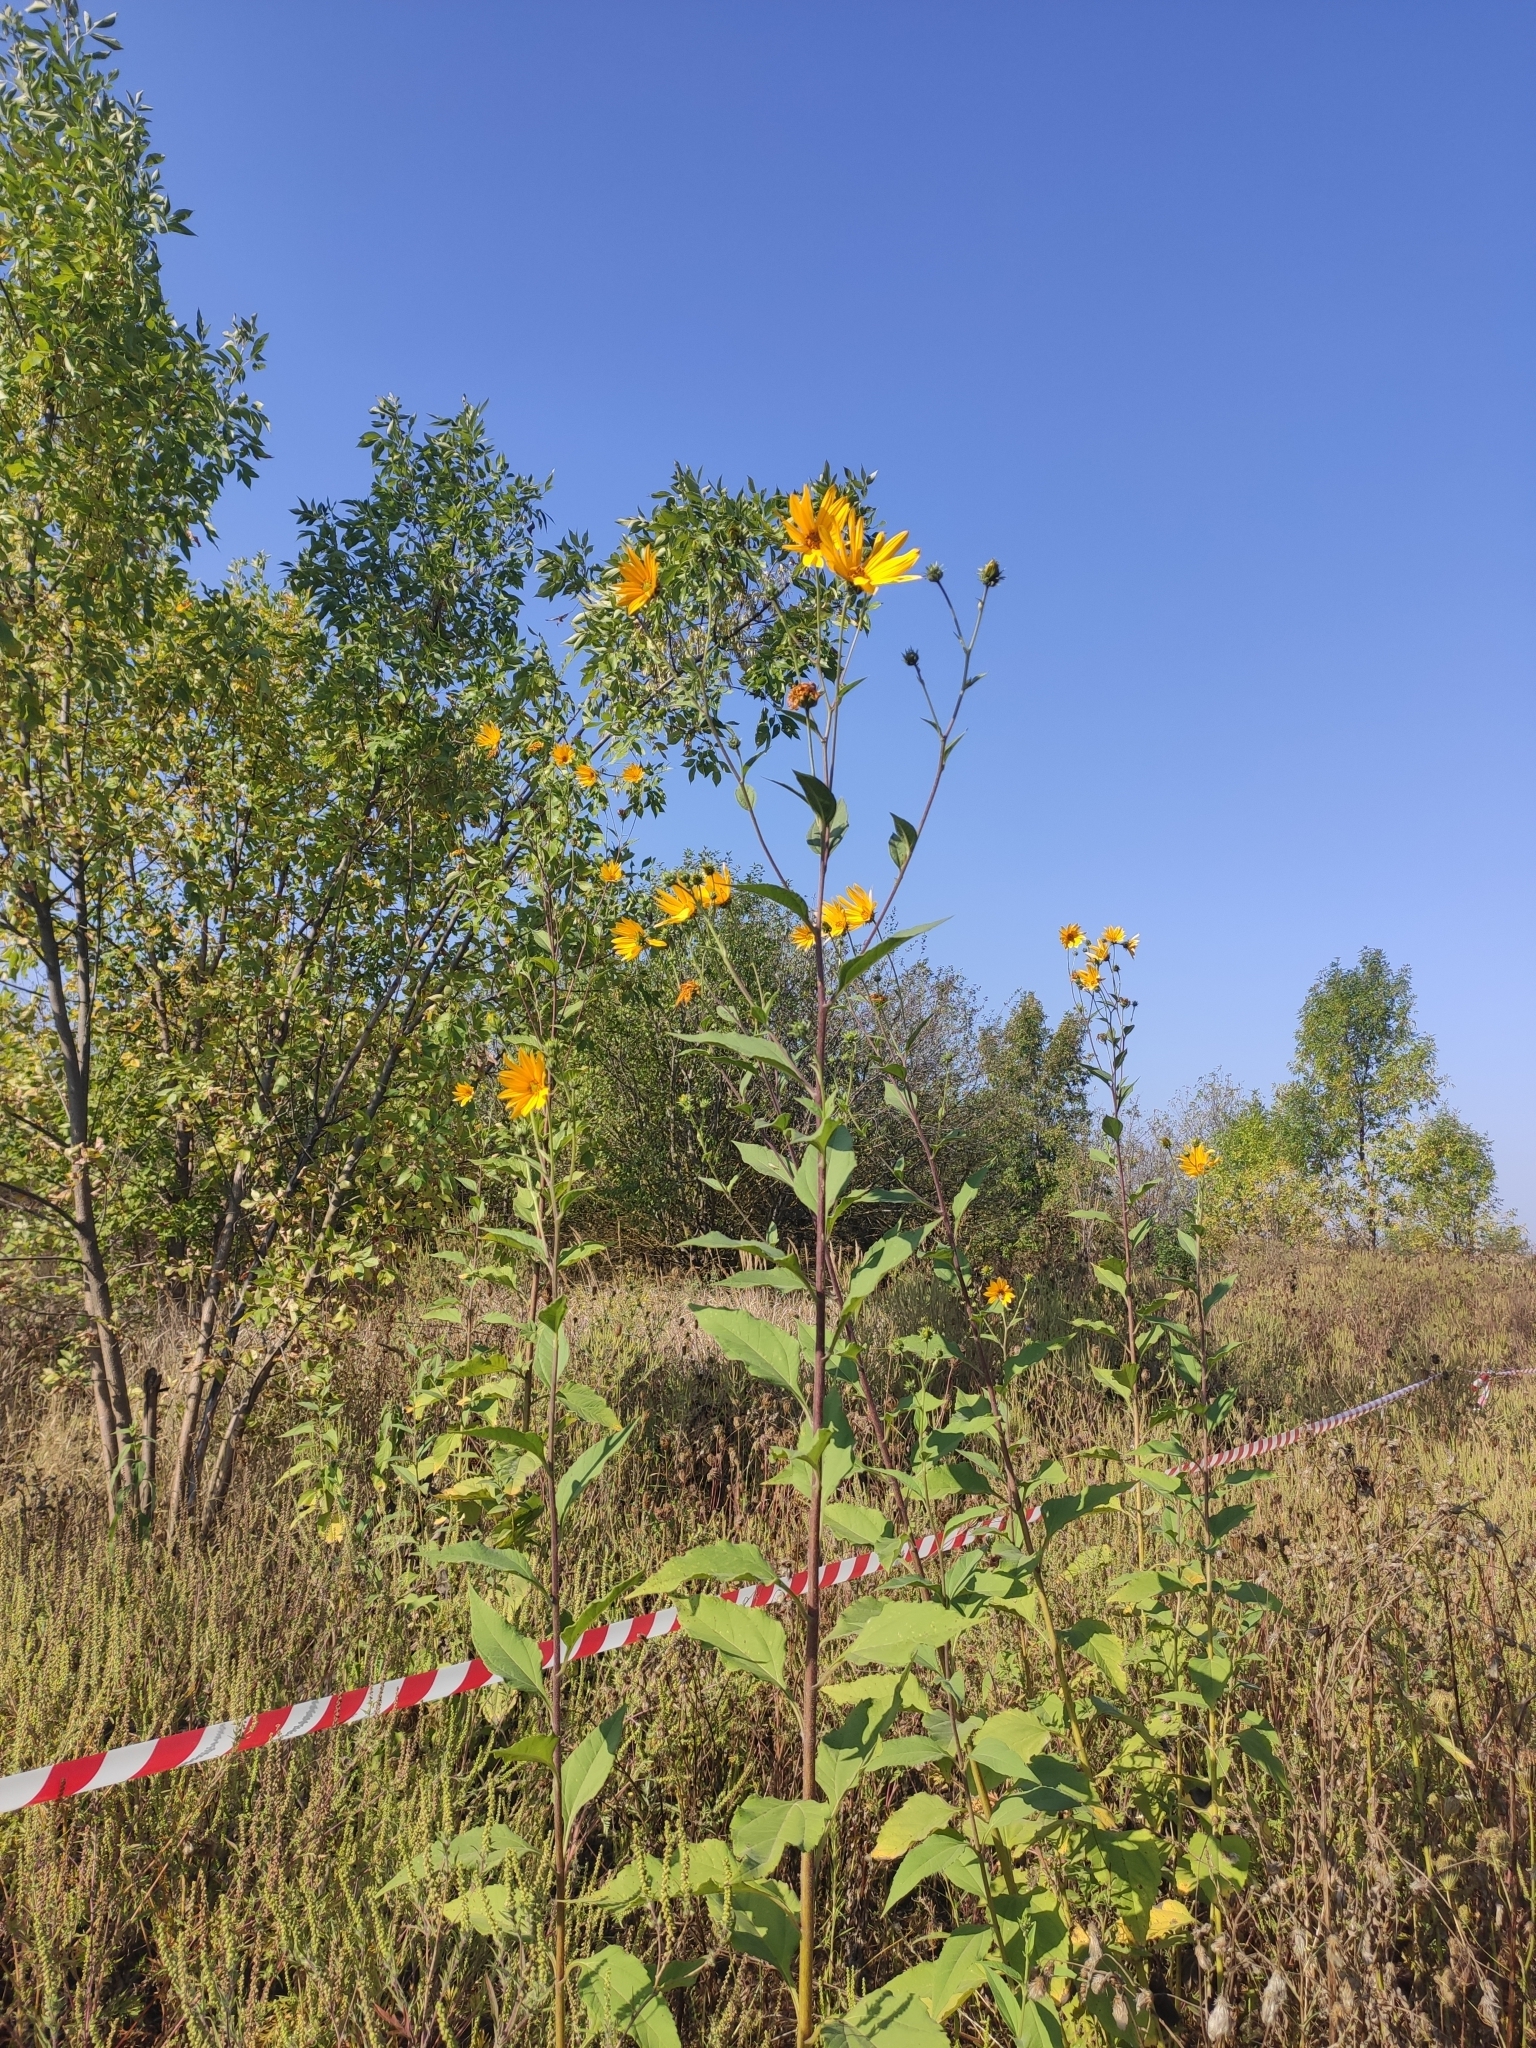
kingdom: Plantae
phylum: Tracheophyta
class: Magnoliopsida
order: Asterales
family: Asteraceae
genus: Helianthus
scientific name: Helianthus tuberosus
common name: Jerusalem artichoke
